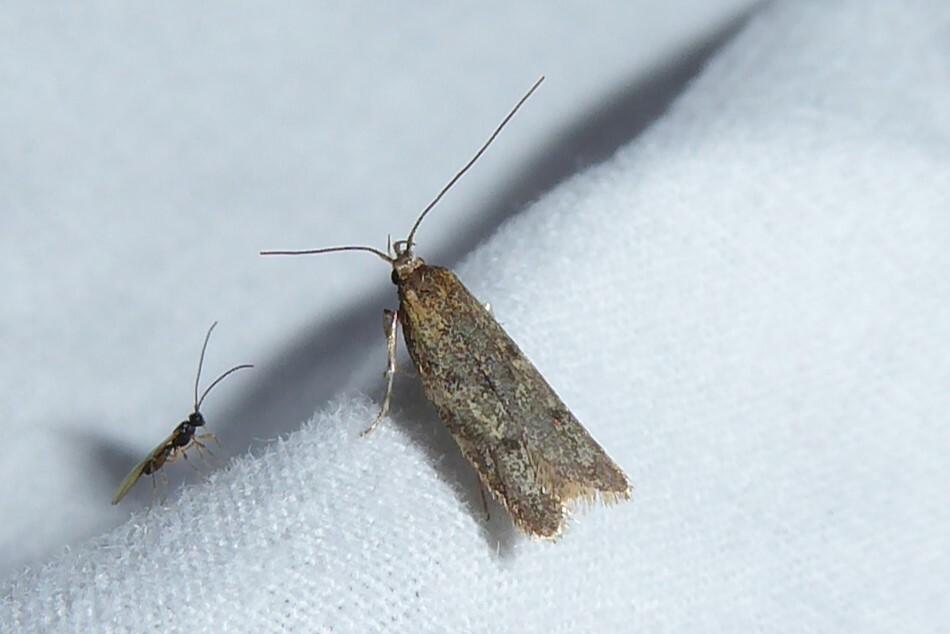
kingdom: Animalia
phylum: Arthropoda
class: Insecta
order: Lepidoptera
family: Oecophoridae
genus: Gymnobathra
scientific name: Gymnobathra tholodella
